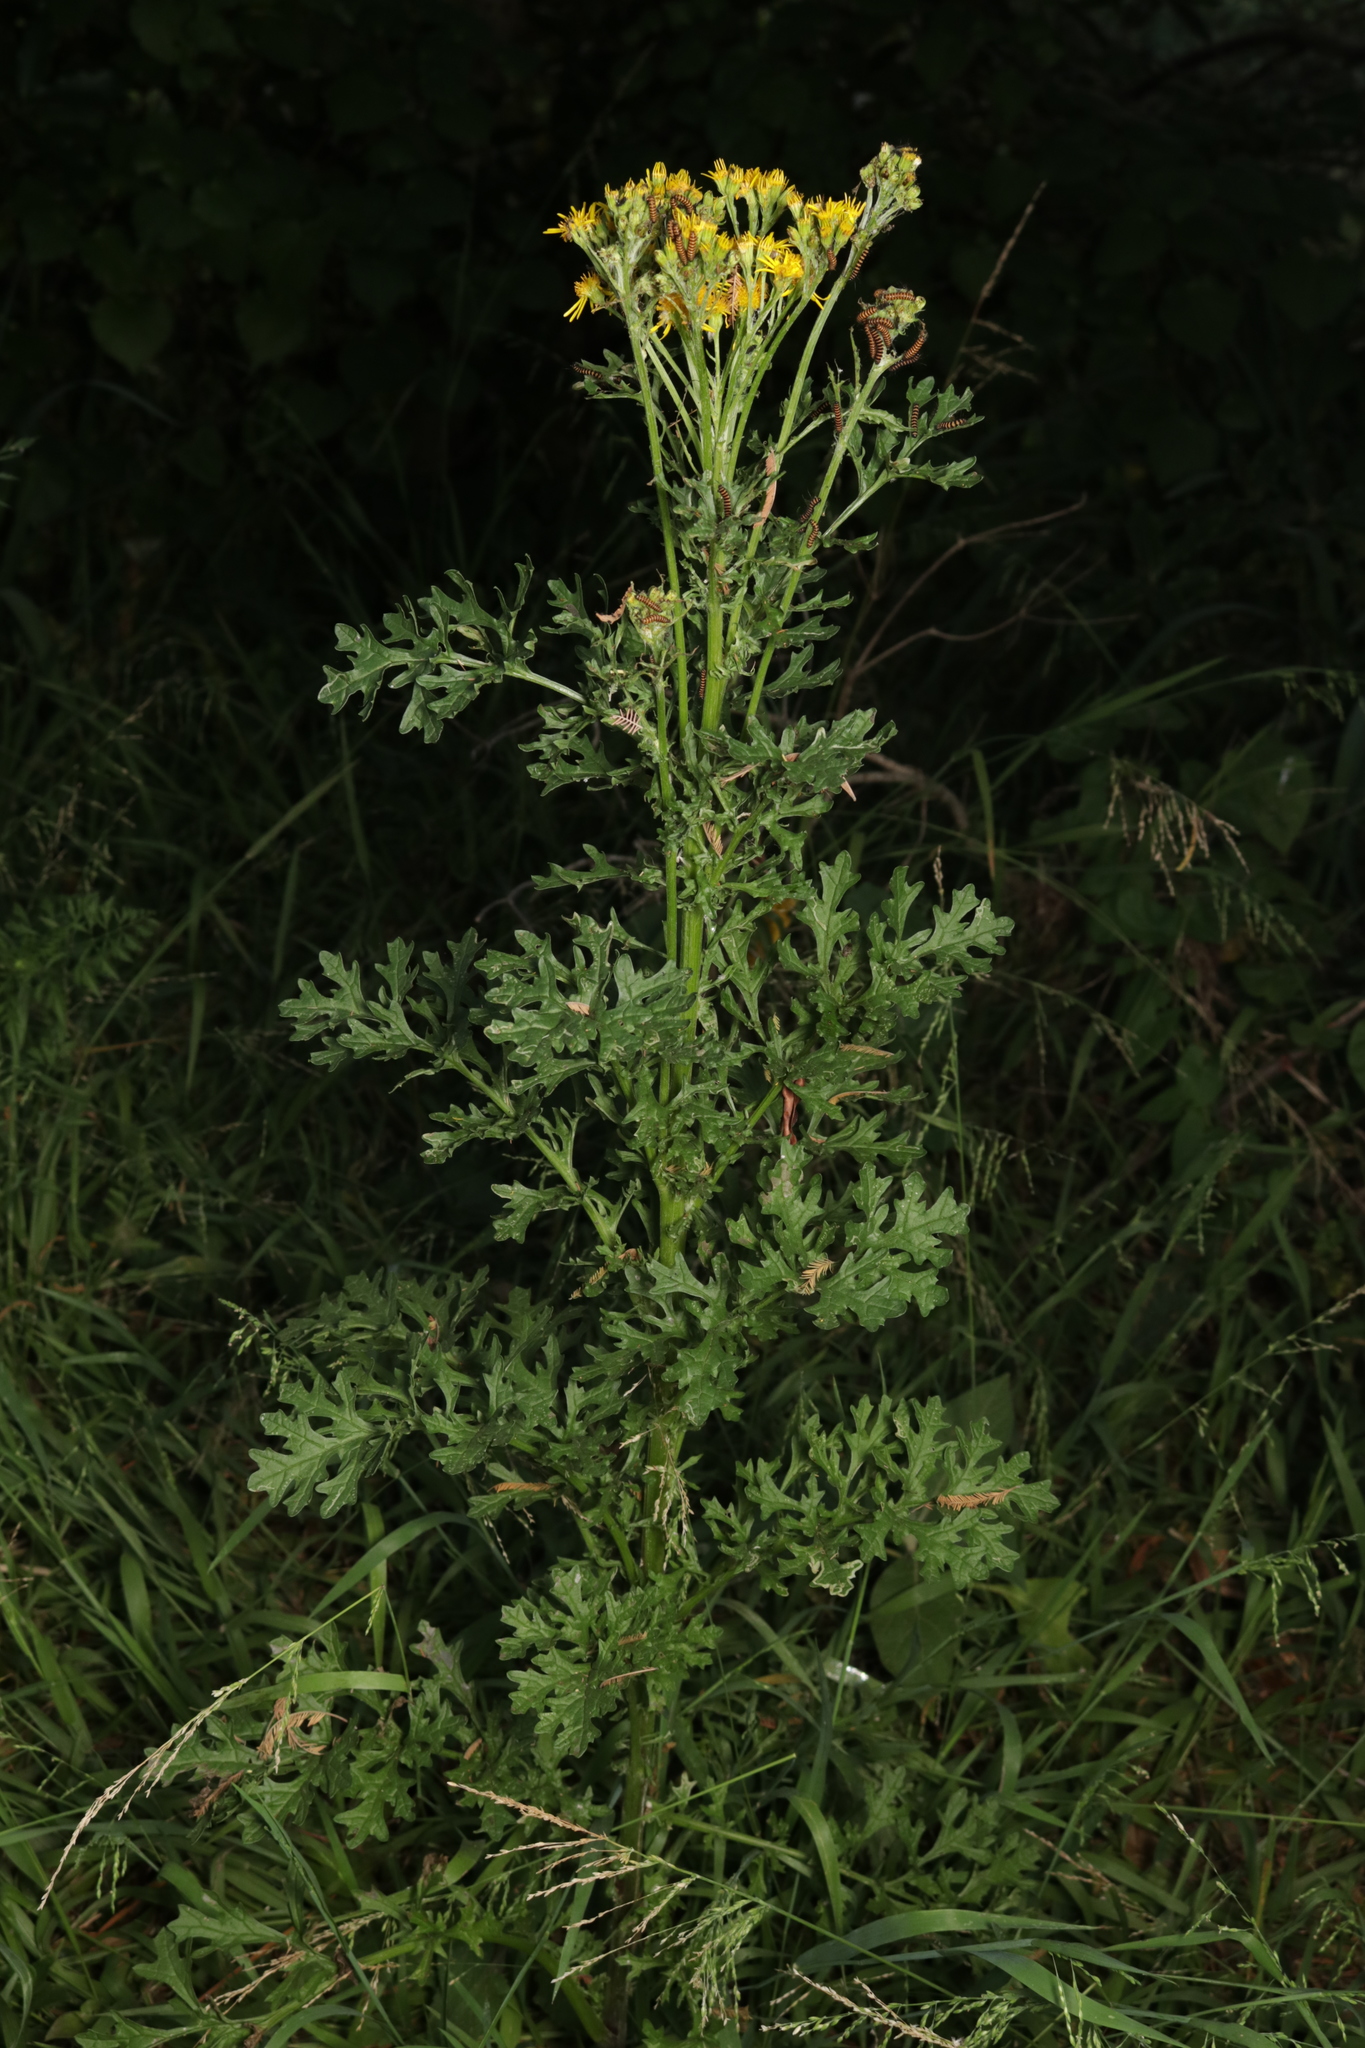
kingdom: Plantae
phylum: Tracheophyta
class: Magnoliopsida
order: Asterales
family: Asteraceae
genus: Jacobaea
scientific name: Jacobaea vulgaris
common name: Stinking willie
